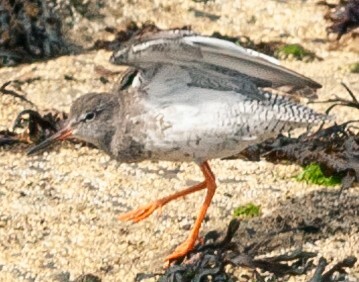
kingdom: Animalia
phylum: Chordata
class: Aves
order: Charadriiformes
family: Scolopacidae
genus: Tringa
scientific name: Tringa totanus
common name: Common redshank
